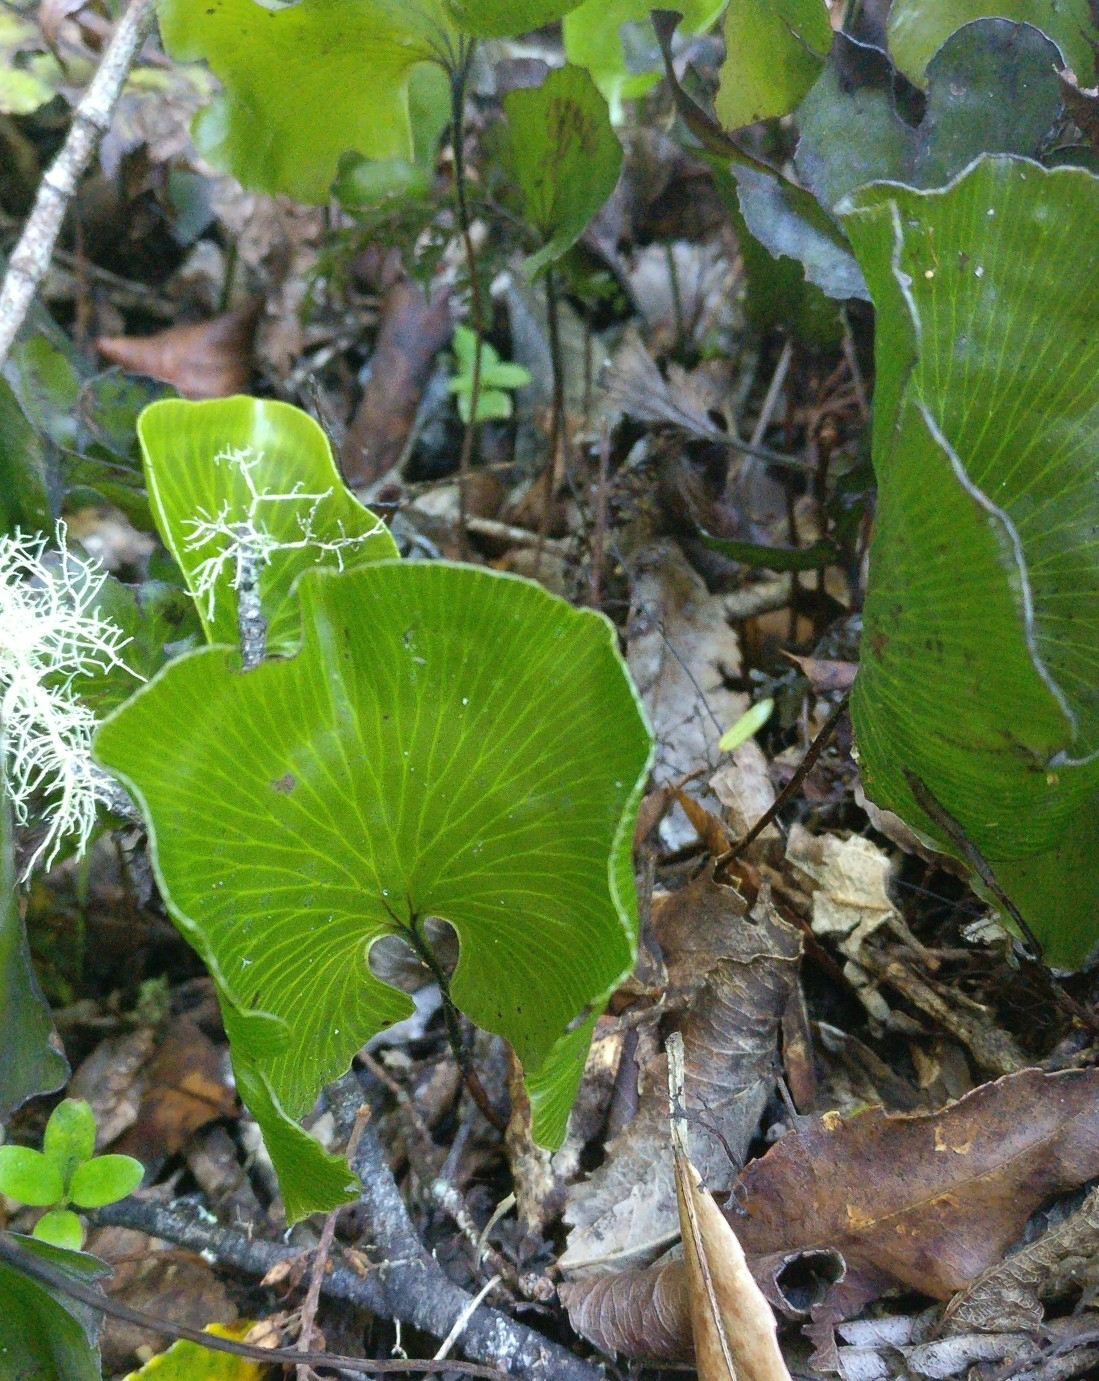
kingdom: Plantae
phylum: Tracheophyta
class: Polypodiopsida
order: Hymenophyllales
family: Hymenophyllaceae
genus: Hymenophyllum
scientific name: Hymenophyllum nephrophyllum
